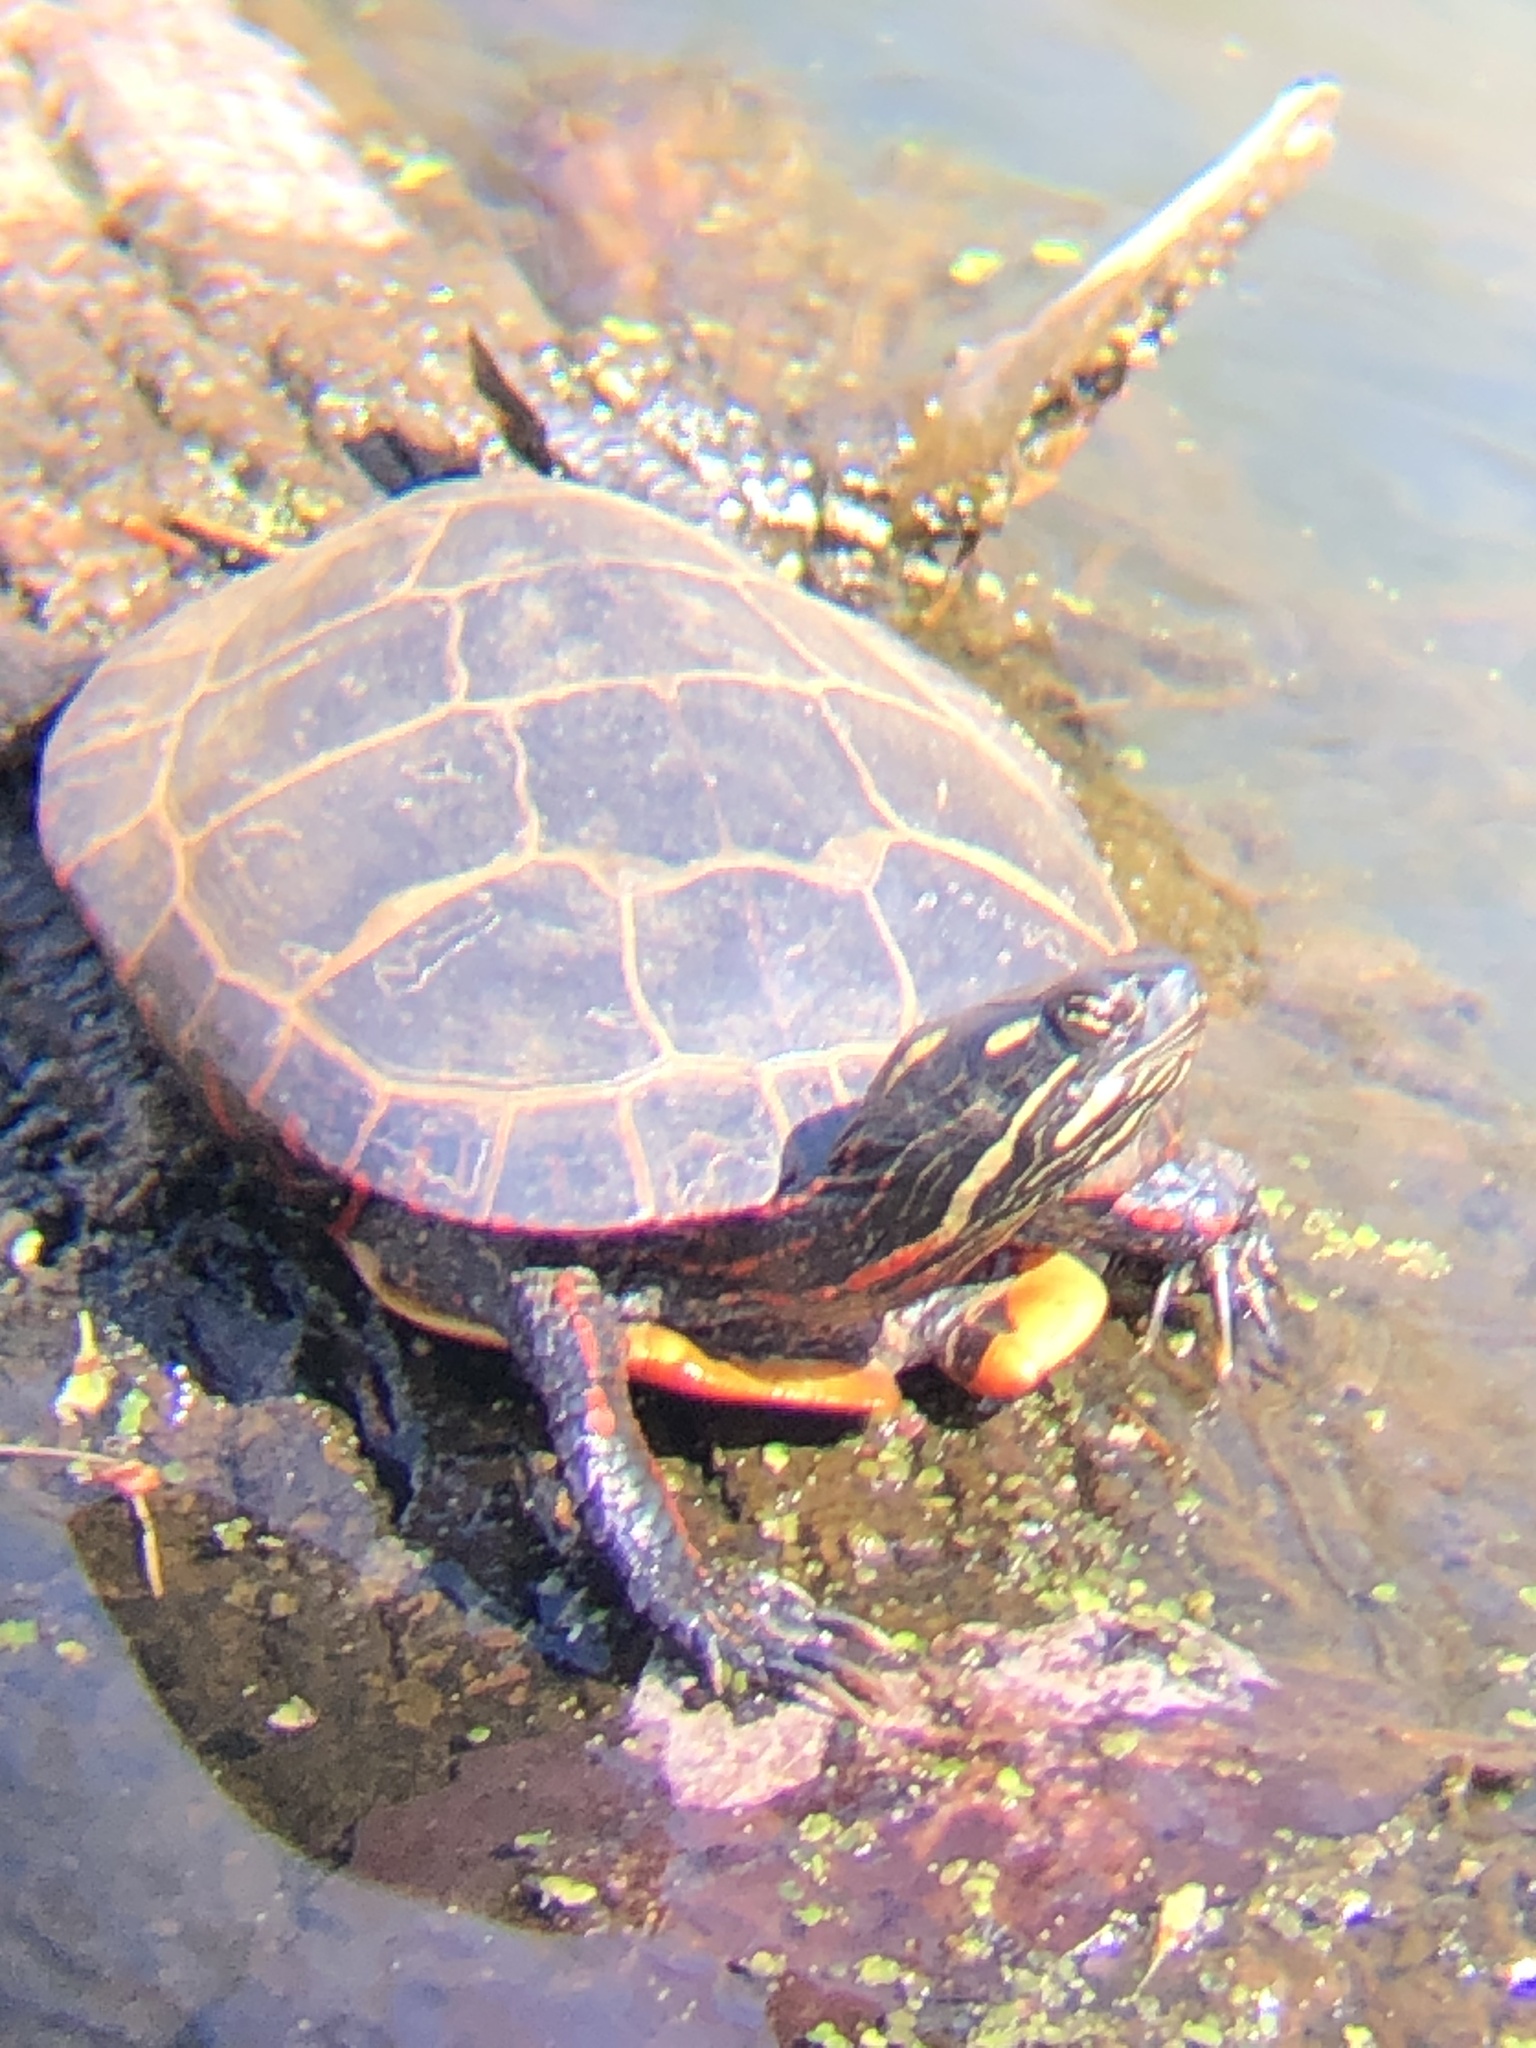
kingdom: Animalia
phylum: Chordata
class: Testudines
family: Emydidae
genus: Chrysemys
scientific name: Chrysemys picta
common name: Painted turtle
